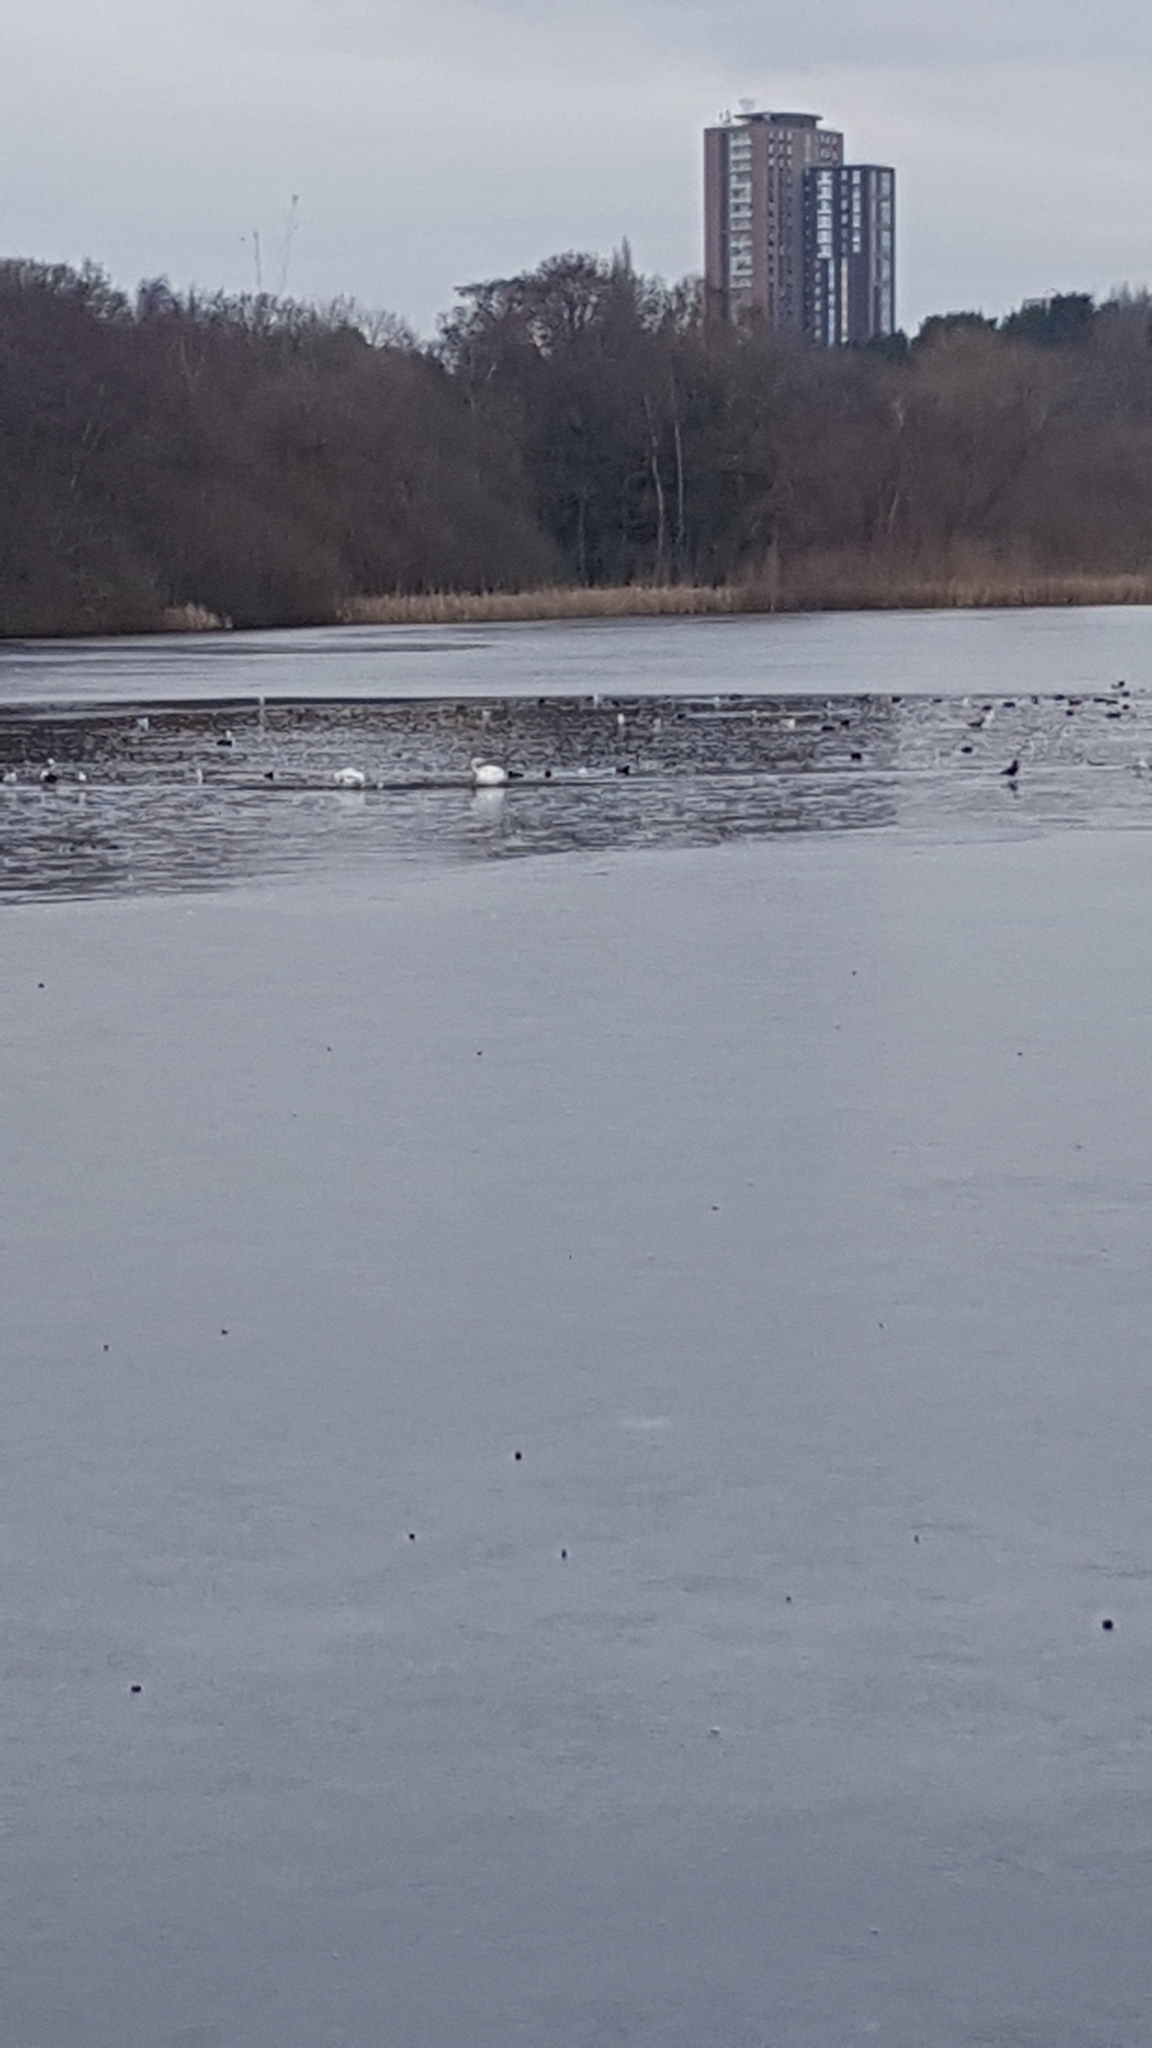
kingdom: Animalia
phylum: Chordata
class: Aves
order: Anseriformes
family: Anatidae
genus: Cygnus
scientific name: Cygnus olor
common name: Mute swan
